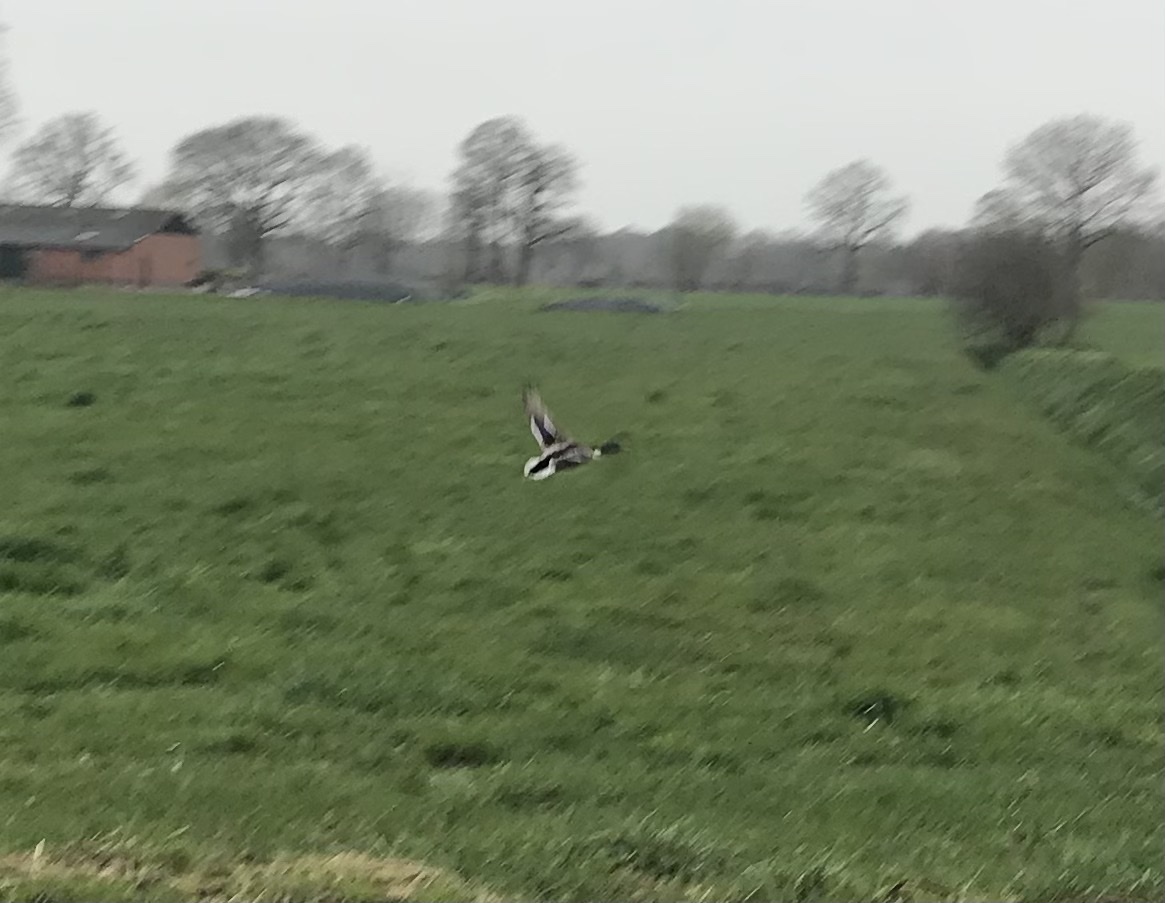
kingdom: Animalia
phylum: Chordata
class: Aves
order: Anseriformes
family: Anatidae
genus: Anas
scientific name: Anas platyrhynchos
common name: Mallard
